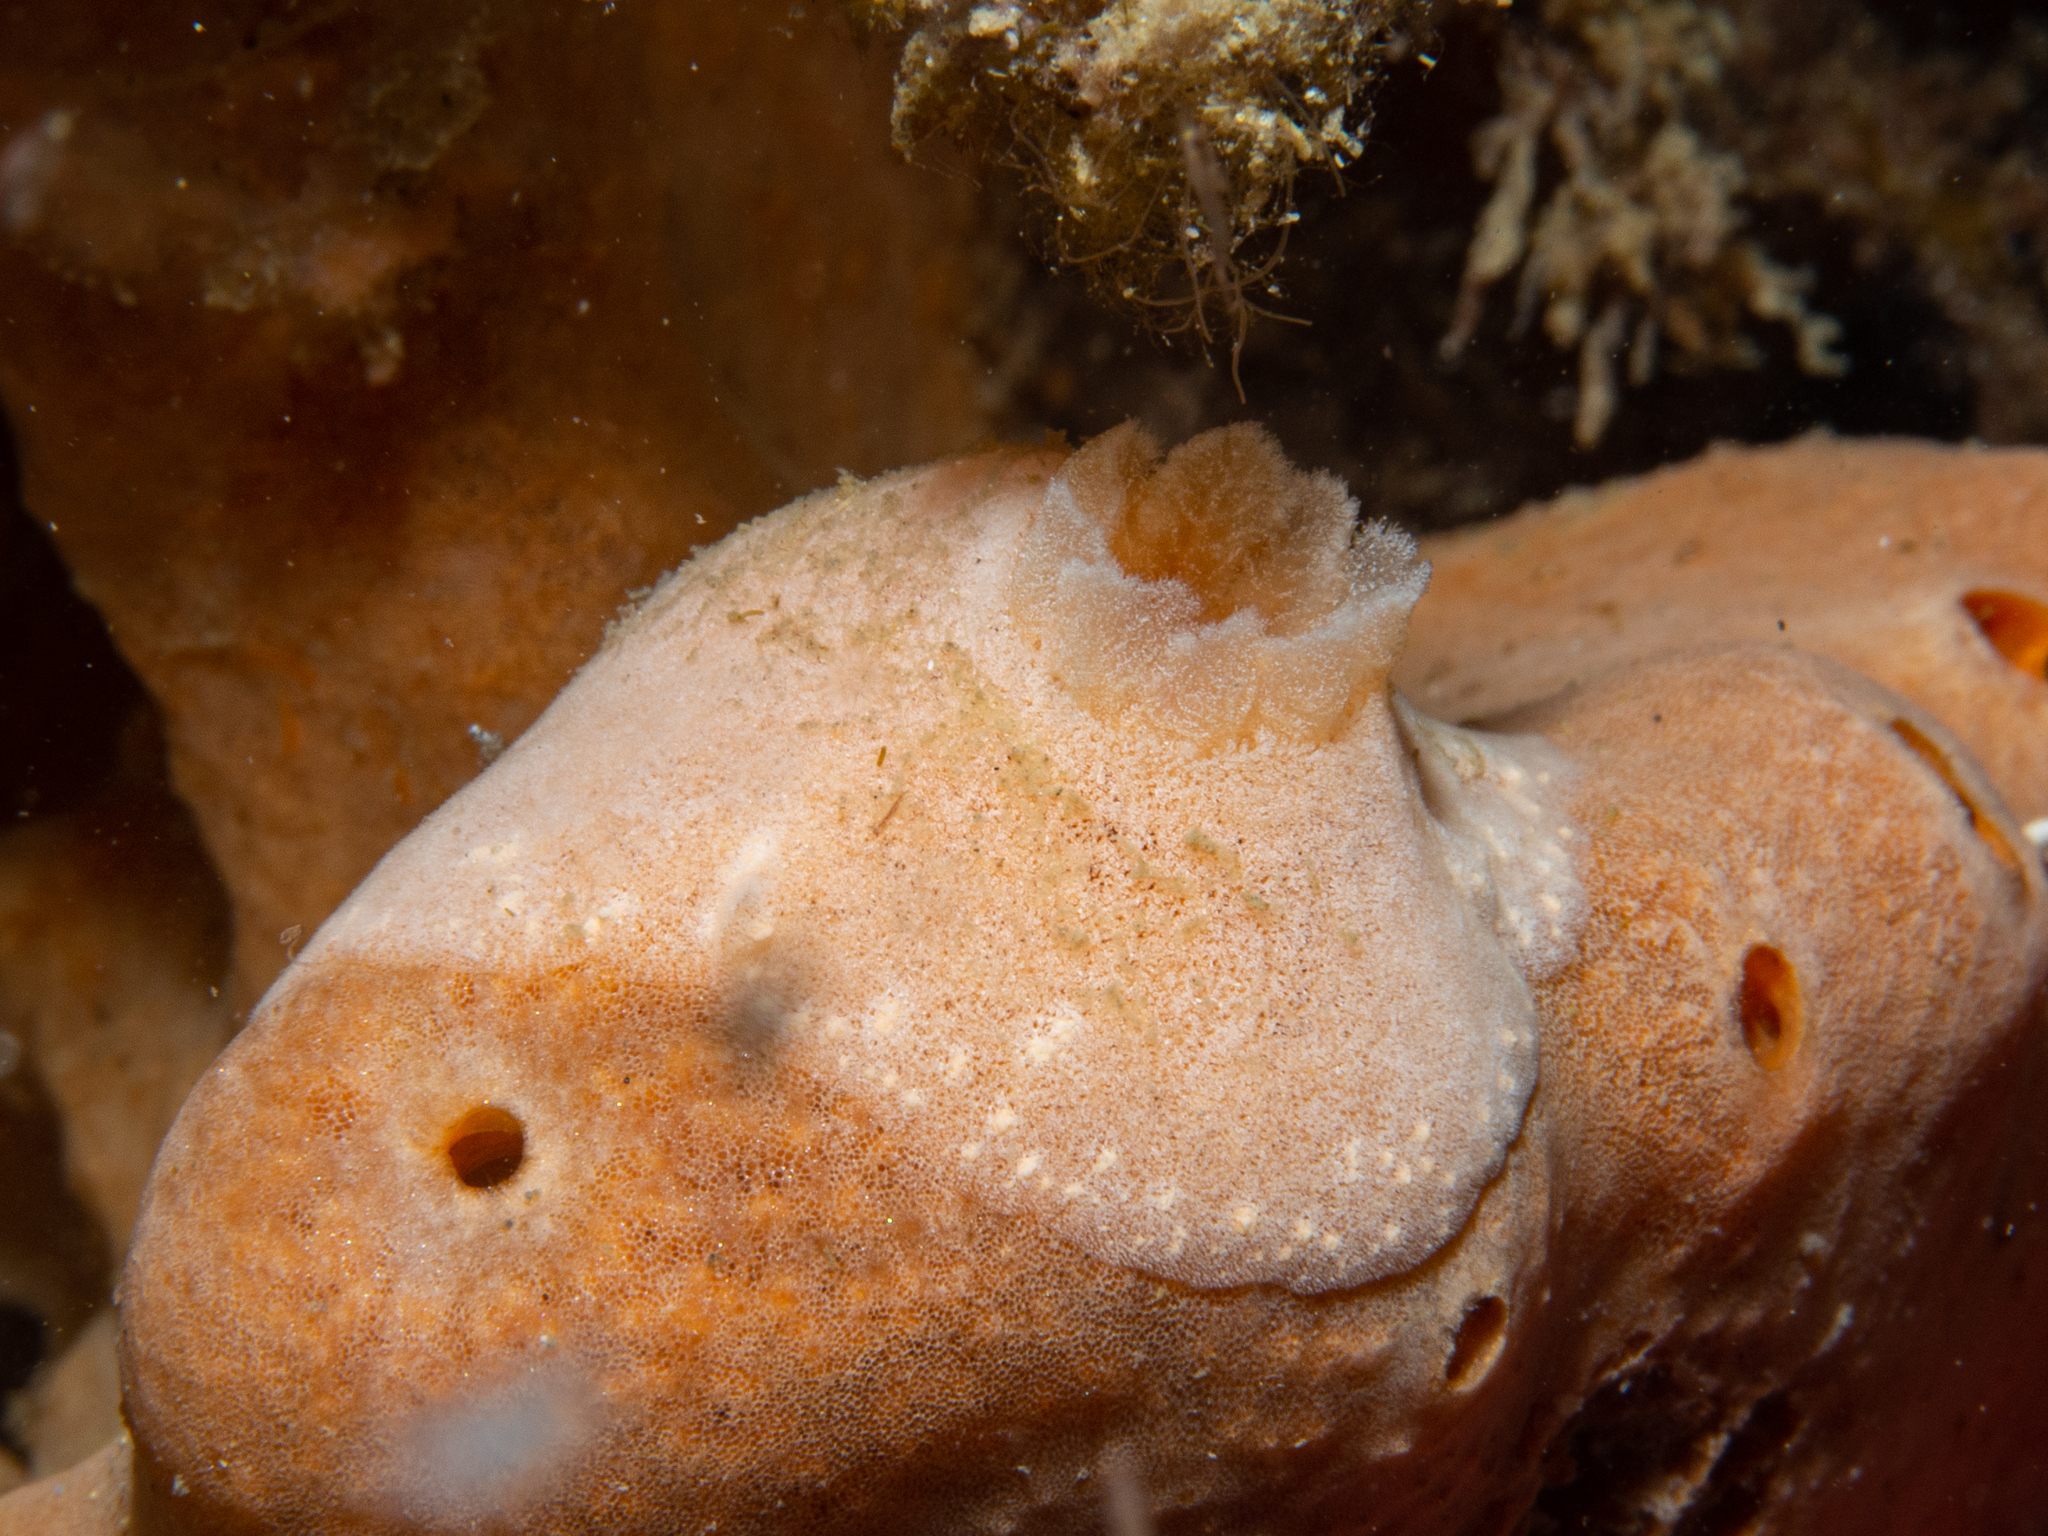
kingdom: Animalia
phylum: Mollusca
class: Gastropoda
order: Nudibranchia
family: Discodorididae
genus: Rostanga
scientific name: Rostanga crawfordi
